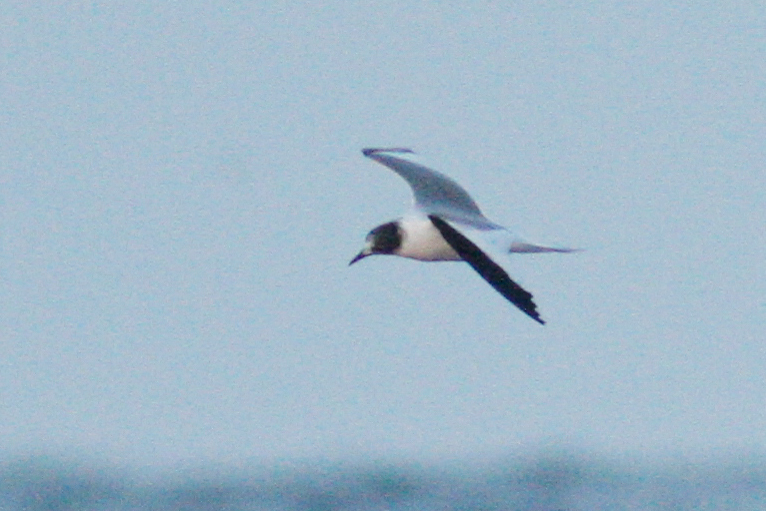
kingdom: Animalia
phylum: Chordata
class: Aves
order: Charadriiformes
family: Laridae
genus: Xema
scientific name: Xema sabini
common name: Sabine's gull
